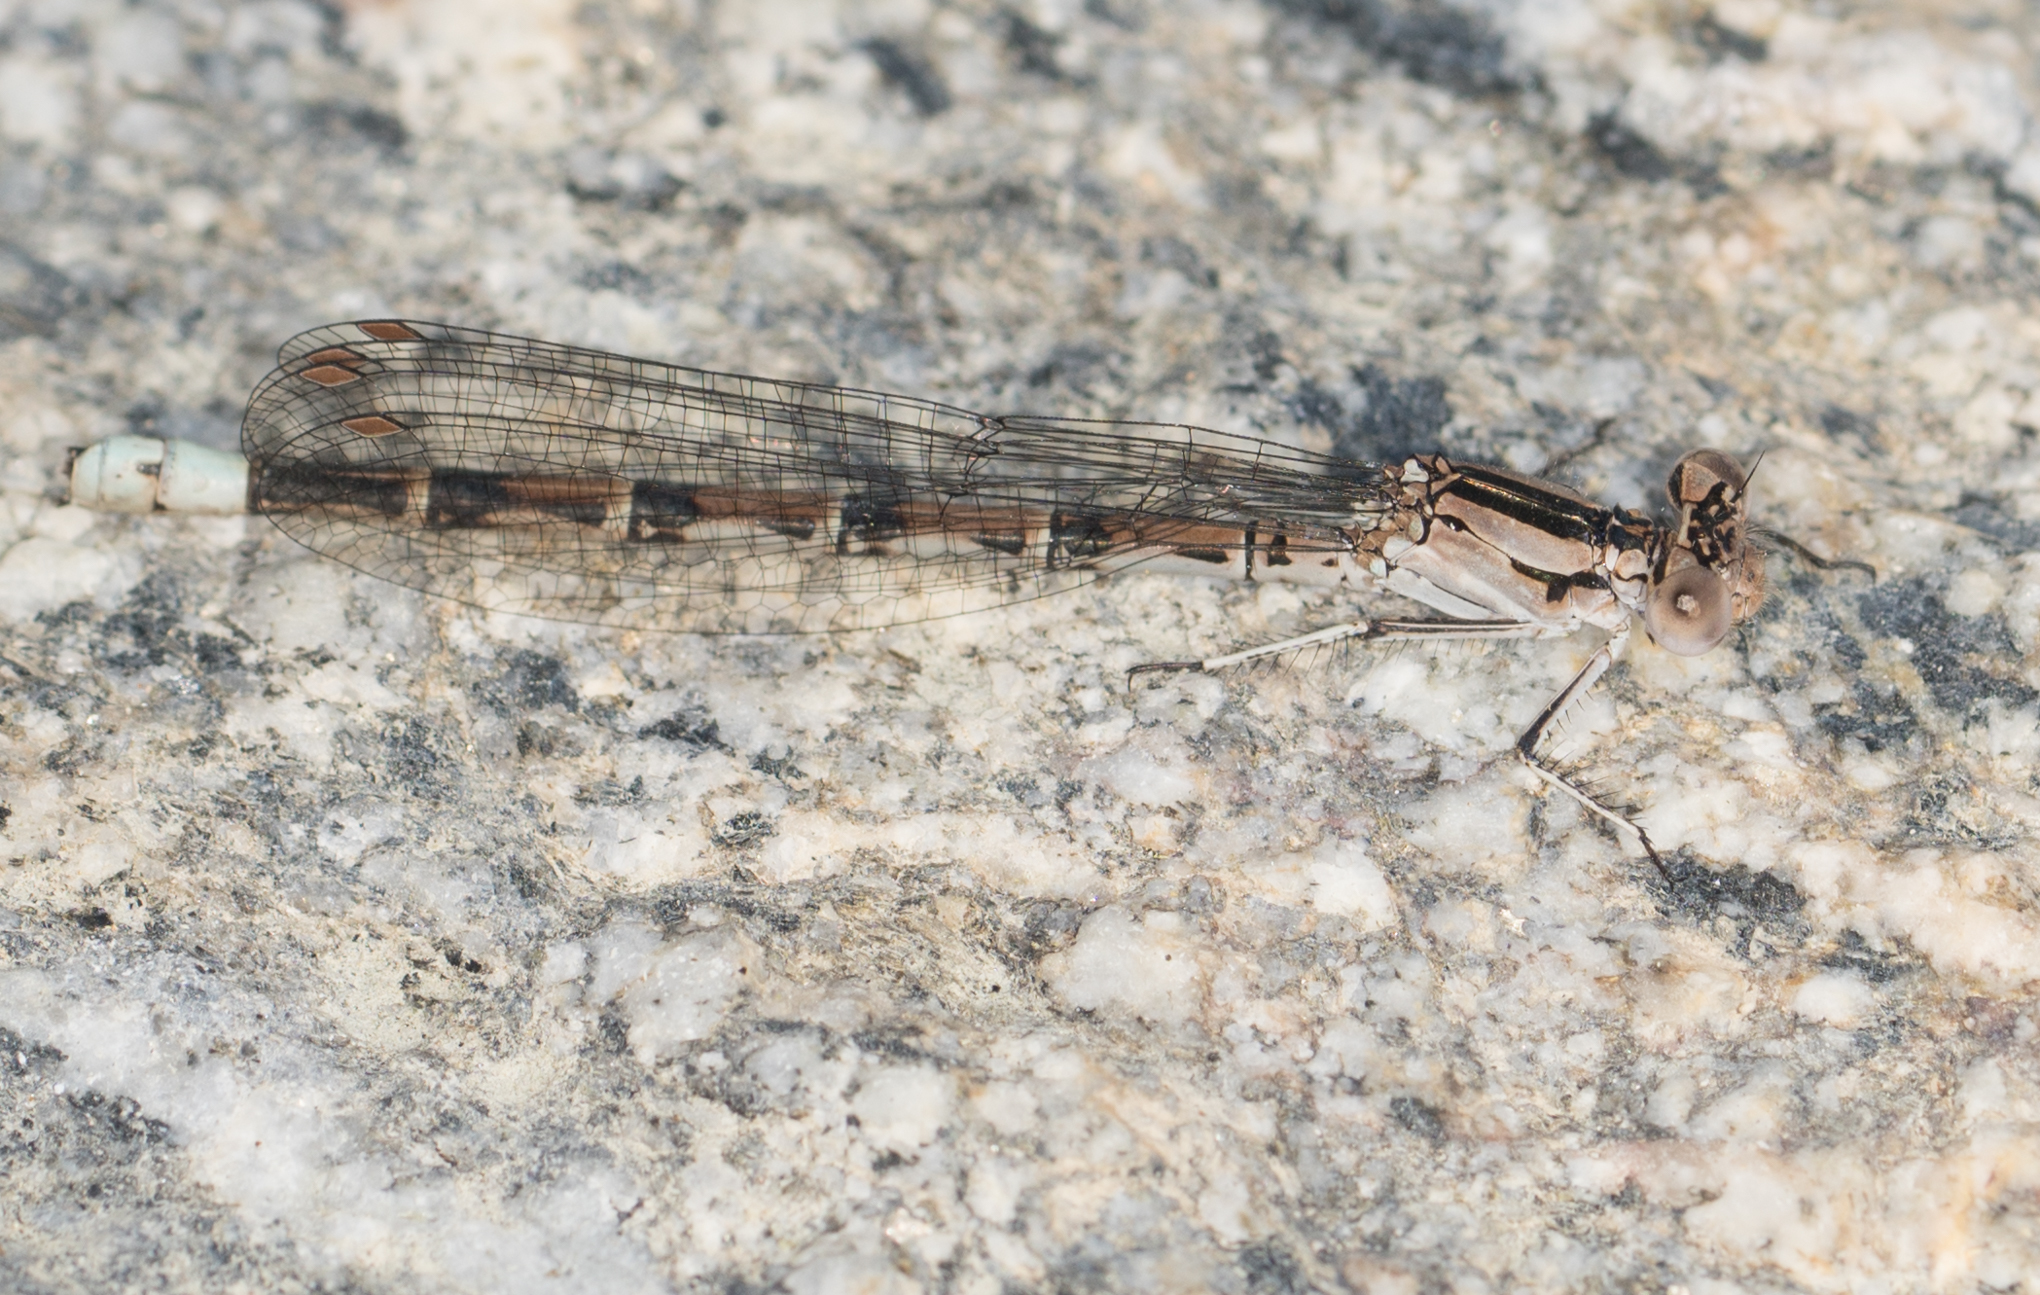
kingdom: Animalia
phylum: Arthropoda
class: Insecta
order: Odonata
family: Coenagrionidae
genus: Argia
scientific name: Argia vivida
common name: Vivid dancer
